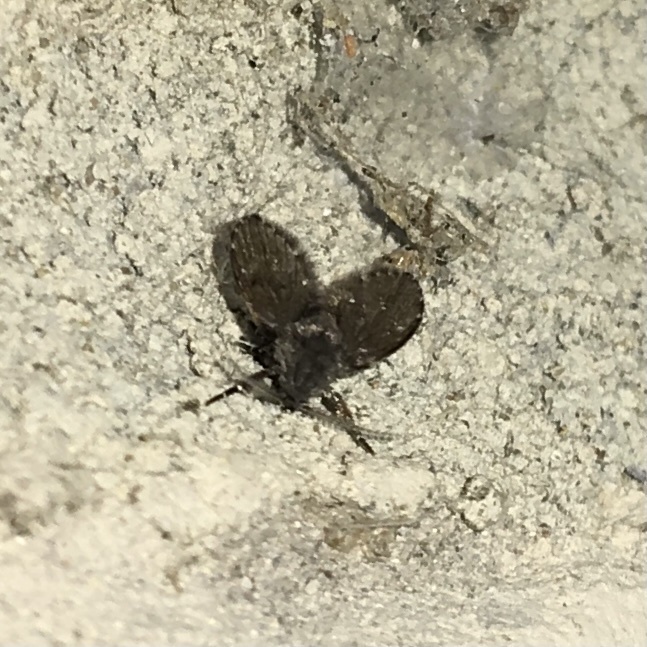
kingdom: Animalia
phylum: Arthropoda
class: Insecta
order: Diptera
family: Psychodidae
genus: Clogmia
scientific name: Clogmia albipunctatus
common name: White-spotted moth fly
